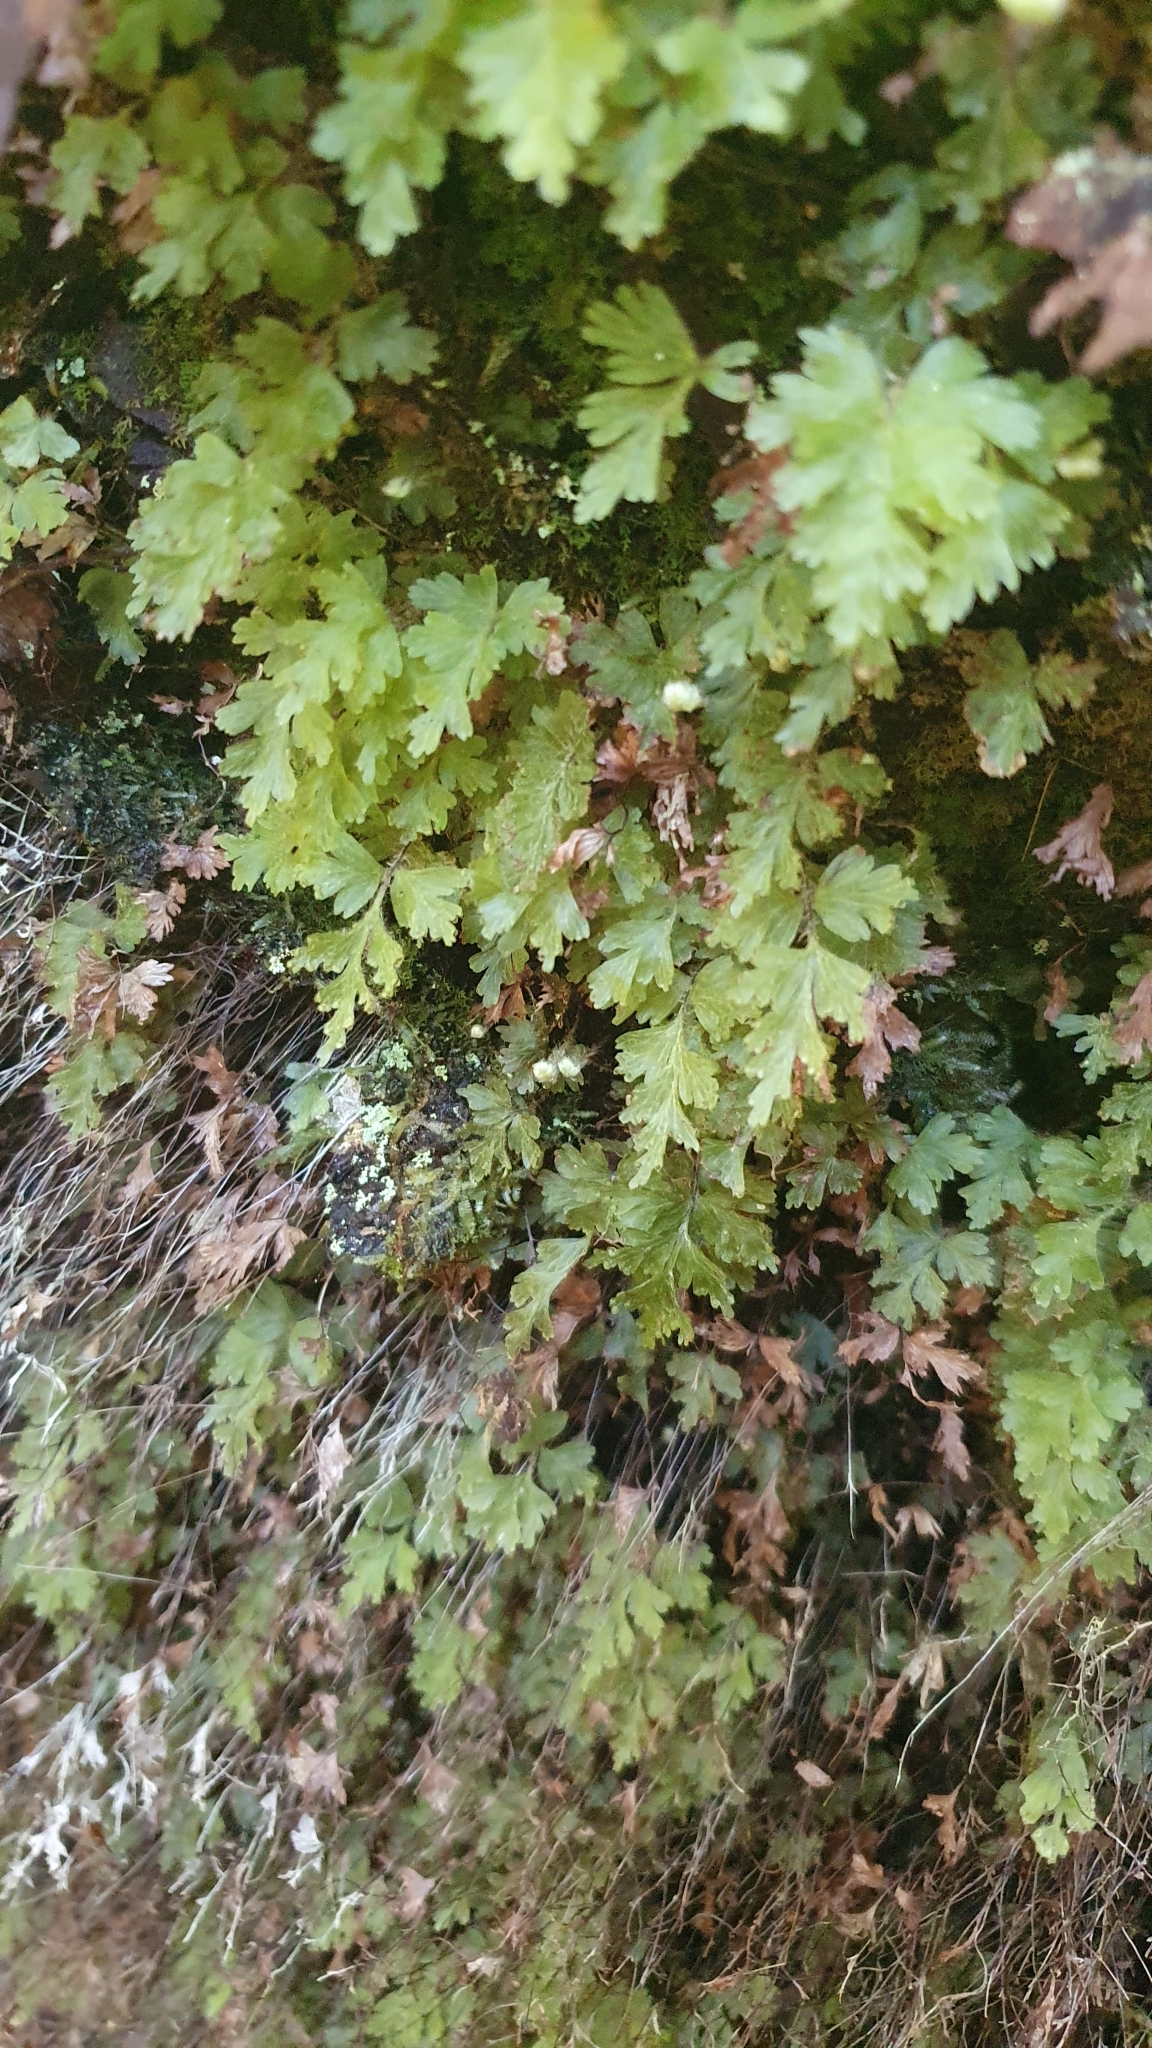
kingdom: Plantae
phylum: Tracheophyta
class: Polypodiopsida
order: Hymenophyllales
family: Hymenophyllaceae
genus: Hymenophyllum
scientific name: Hymenophyllum rufescens
